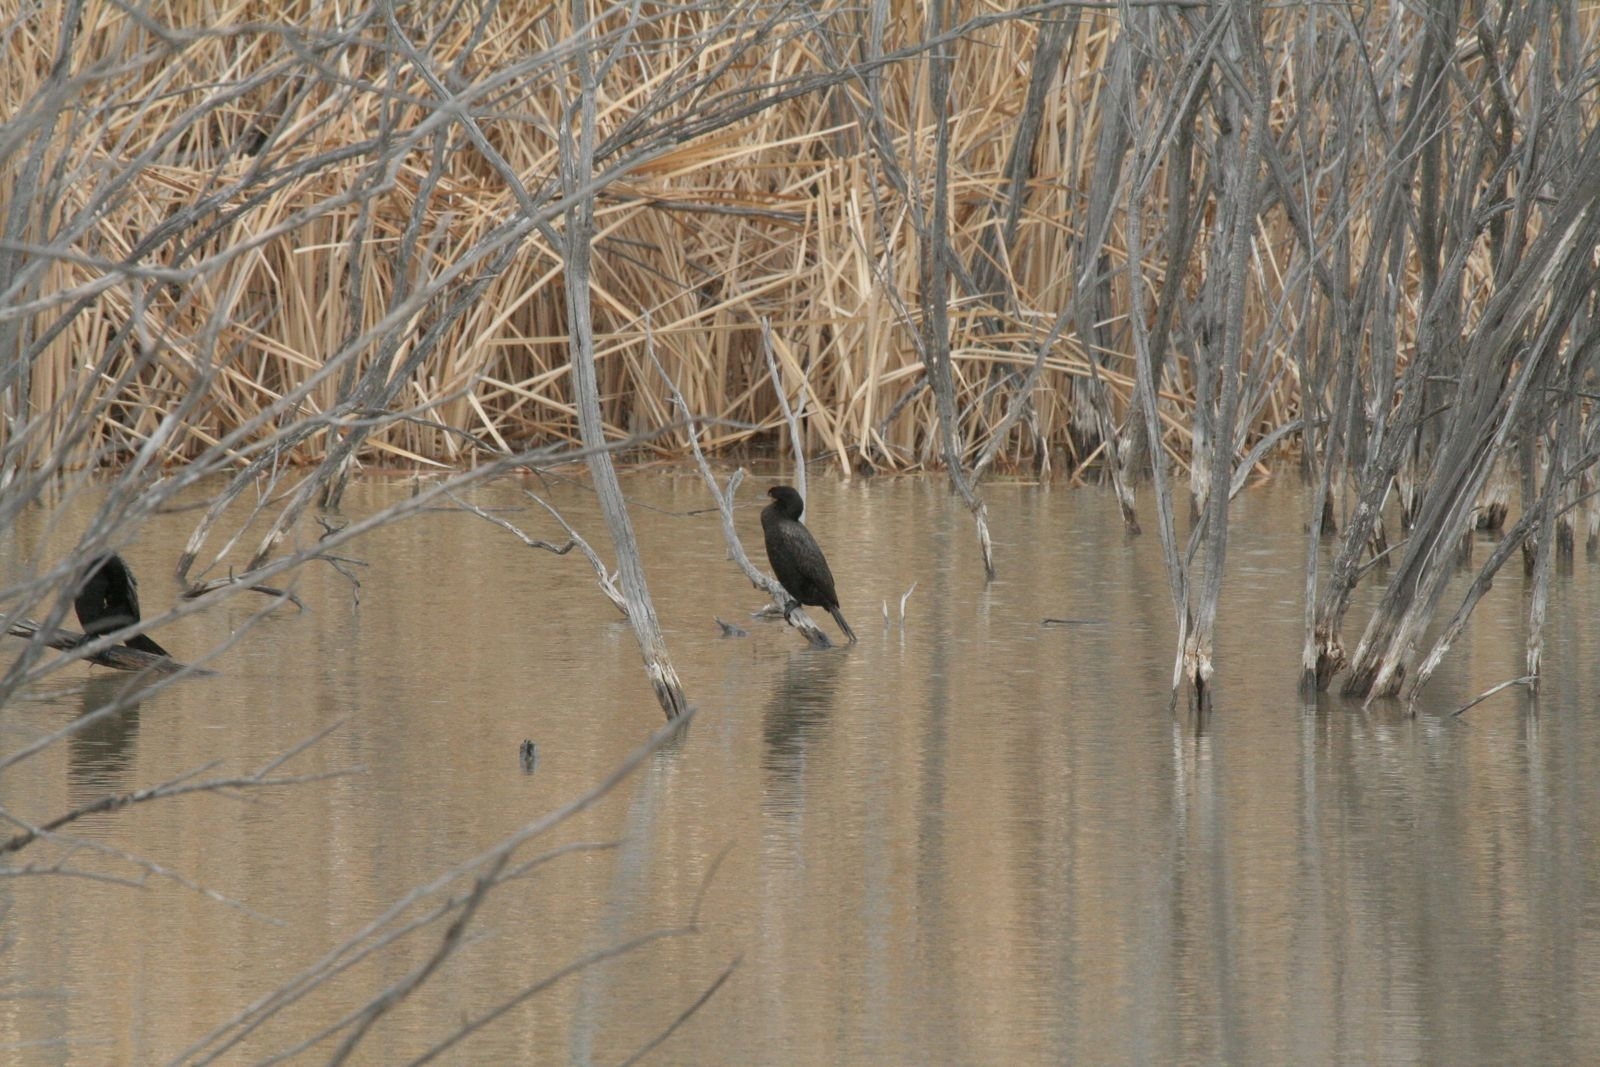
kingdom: Animalia
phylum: Chordata
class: Aves
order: Suliformes
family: Phalacrocoracidae
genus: Phalacrocorax
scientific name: Phalacrocorax auritus
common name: Double-crested cormorant
